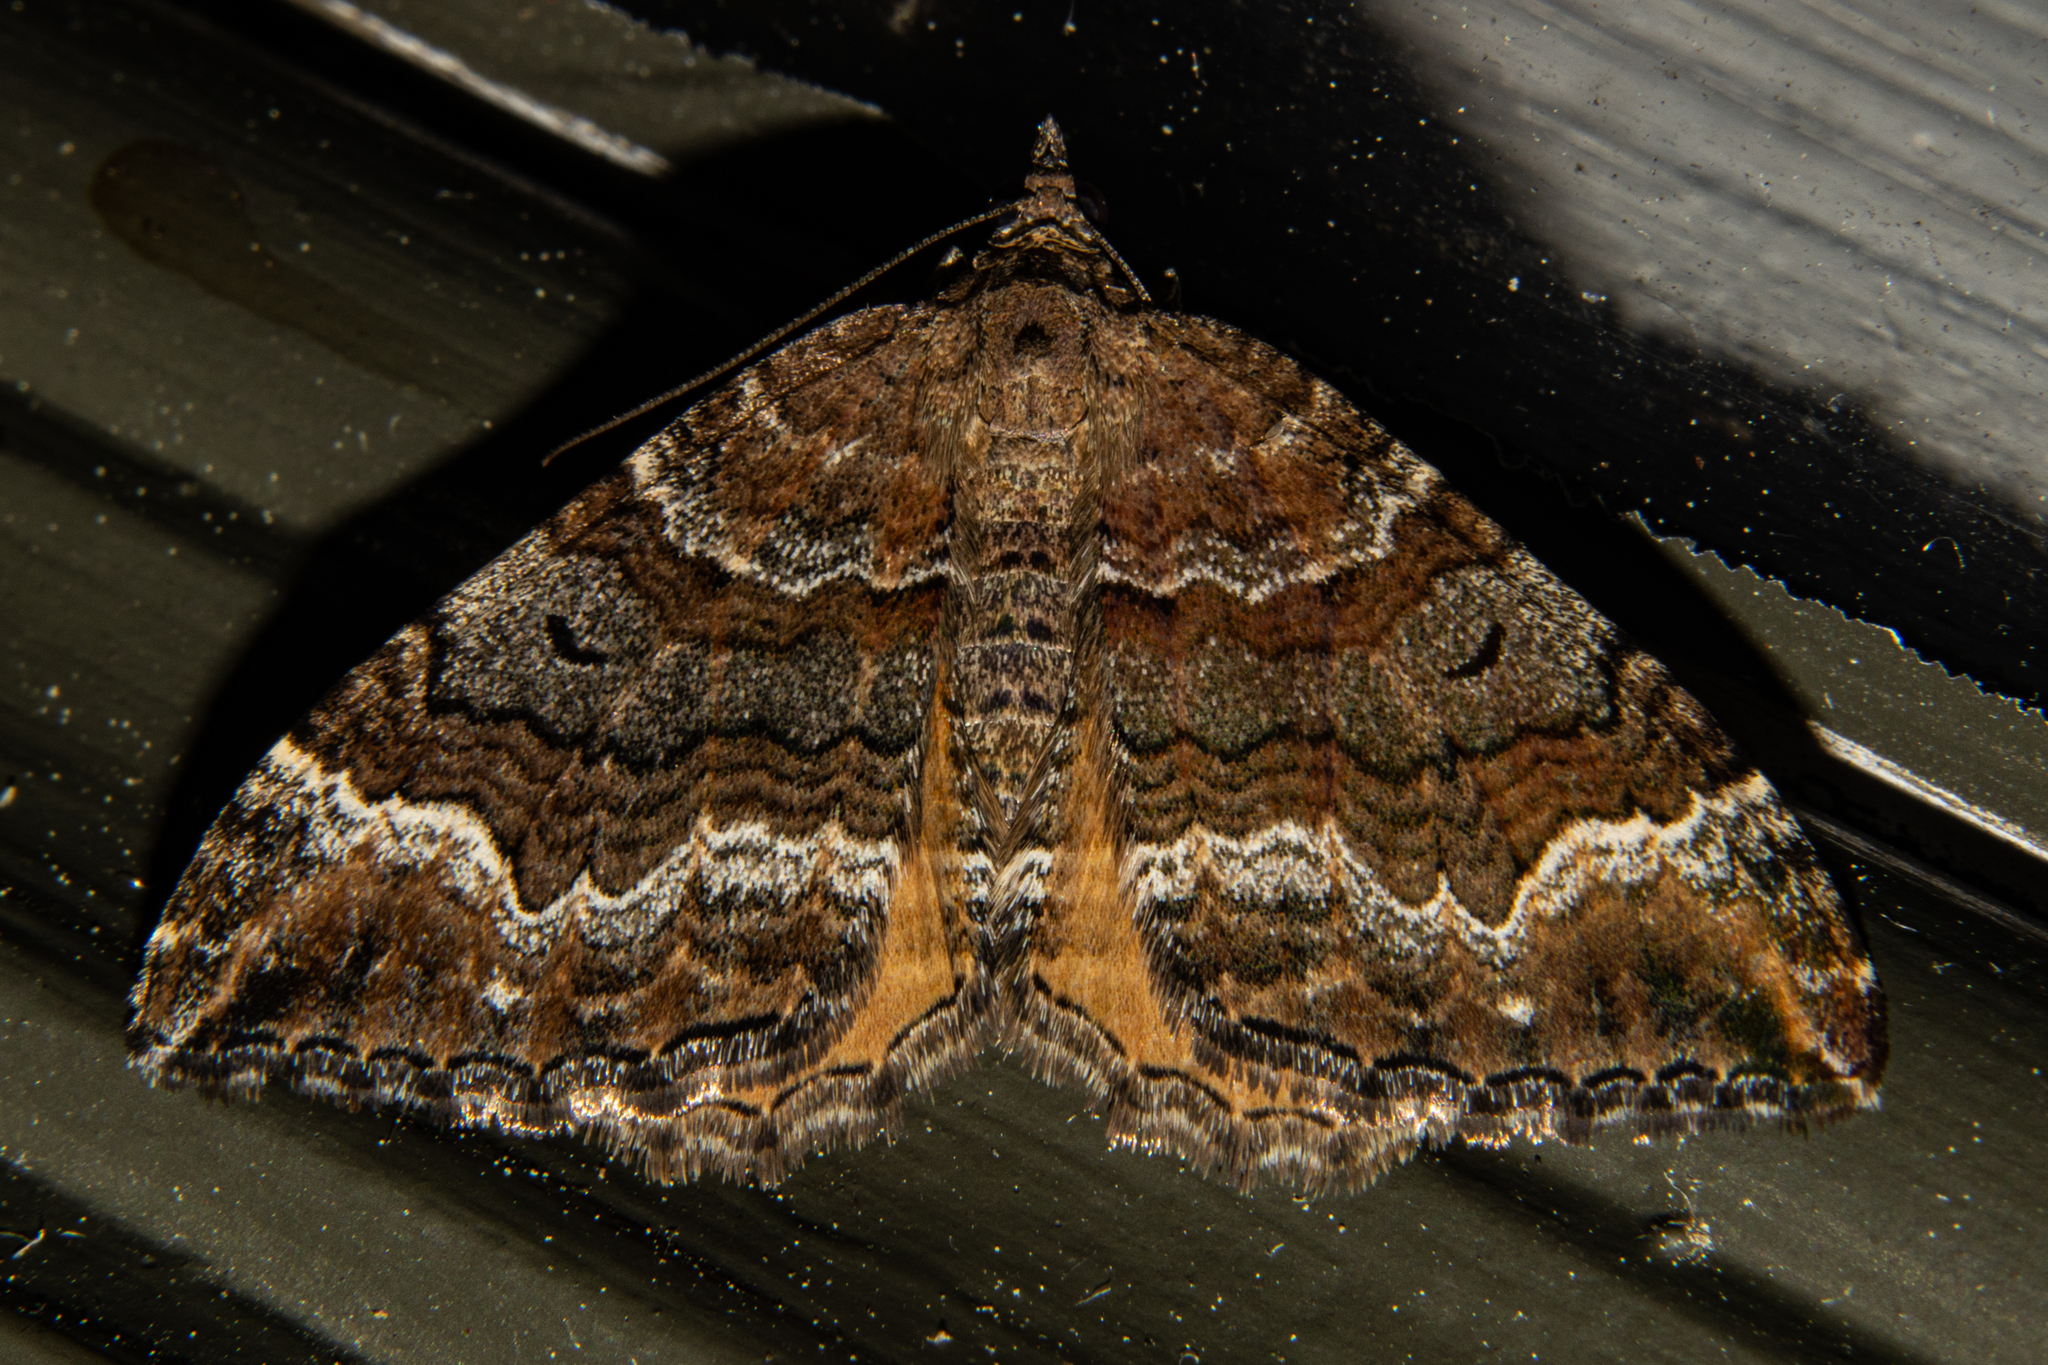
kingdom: Animalia
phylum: Arthropoda
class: Insecta
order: Lepidoptera
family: Geometridae
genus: Hydriomena
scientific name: Hydriomena deltoidata
